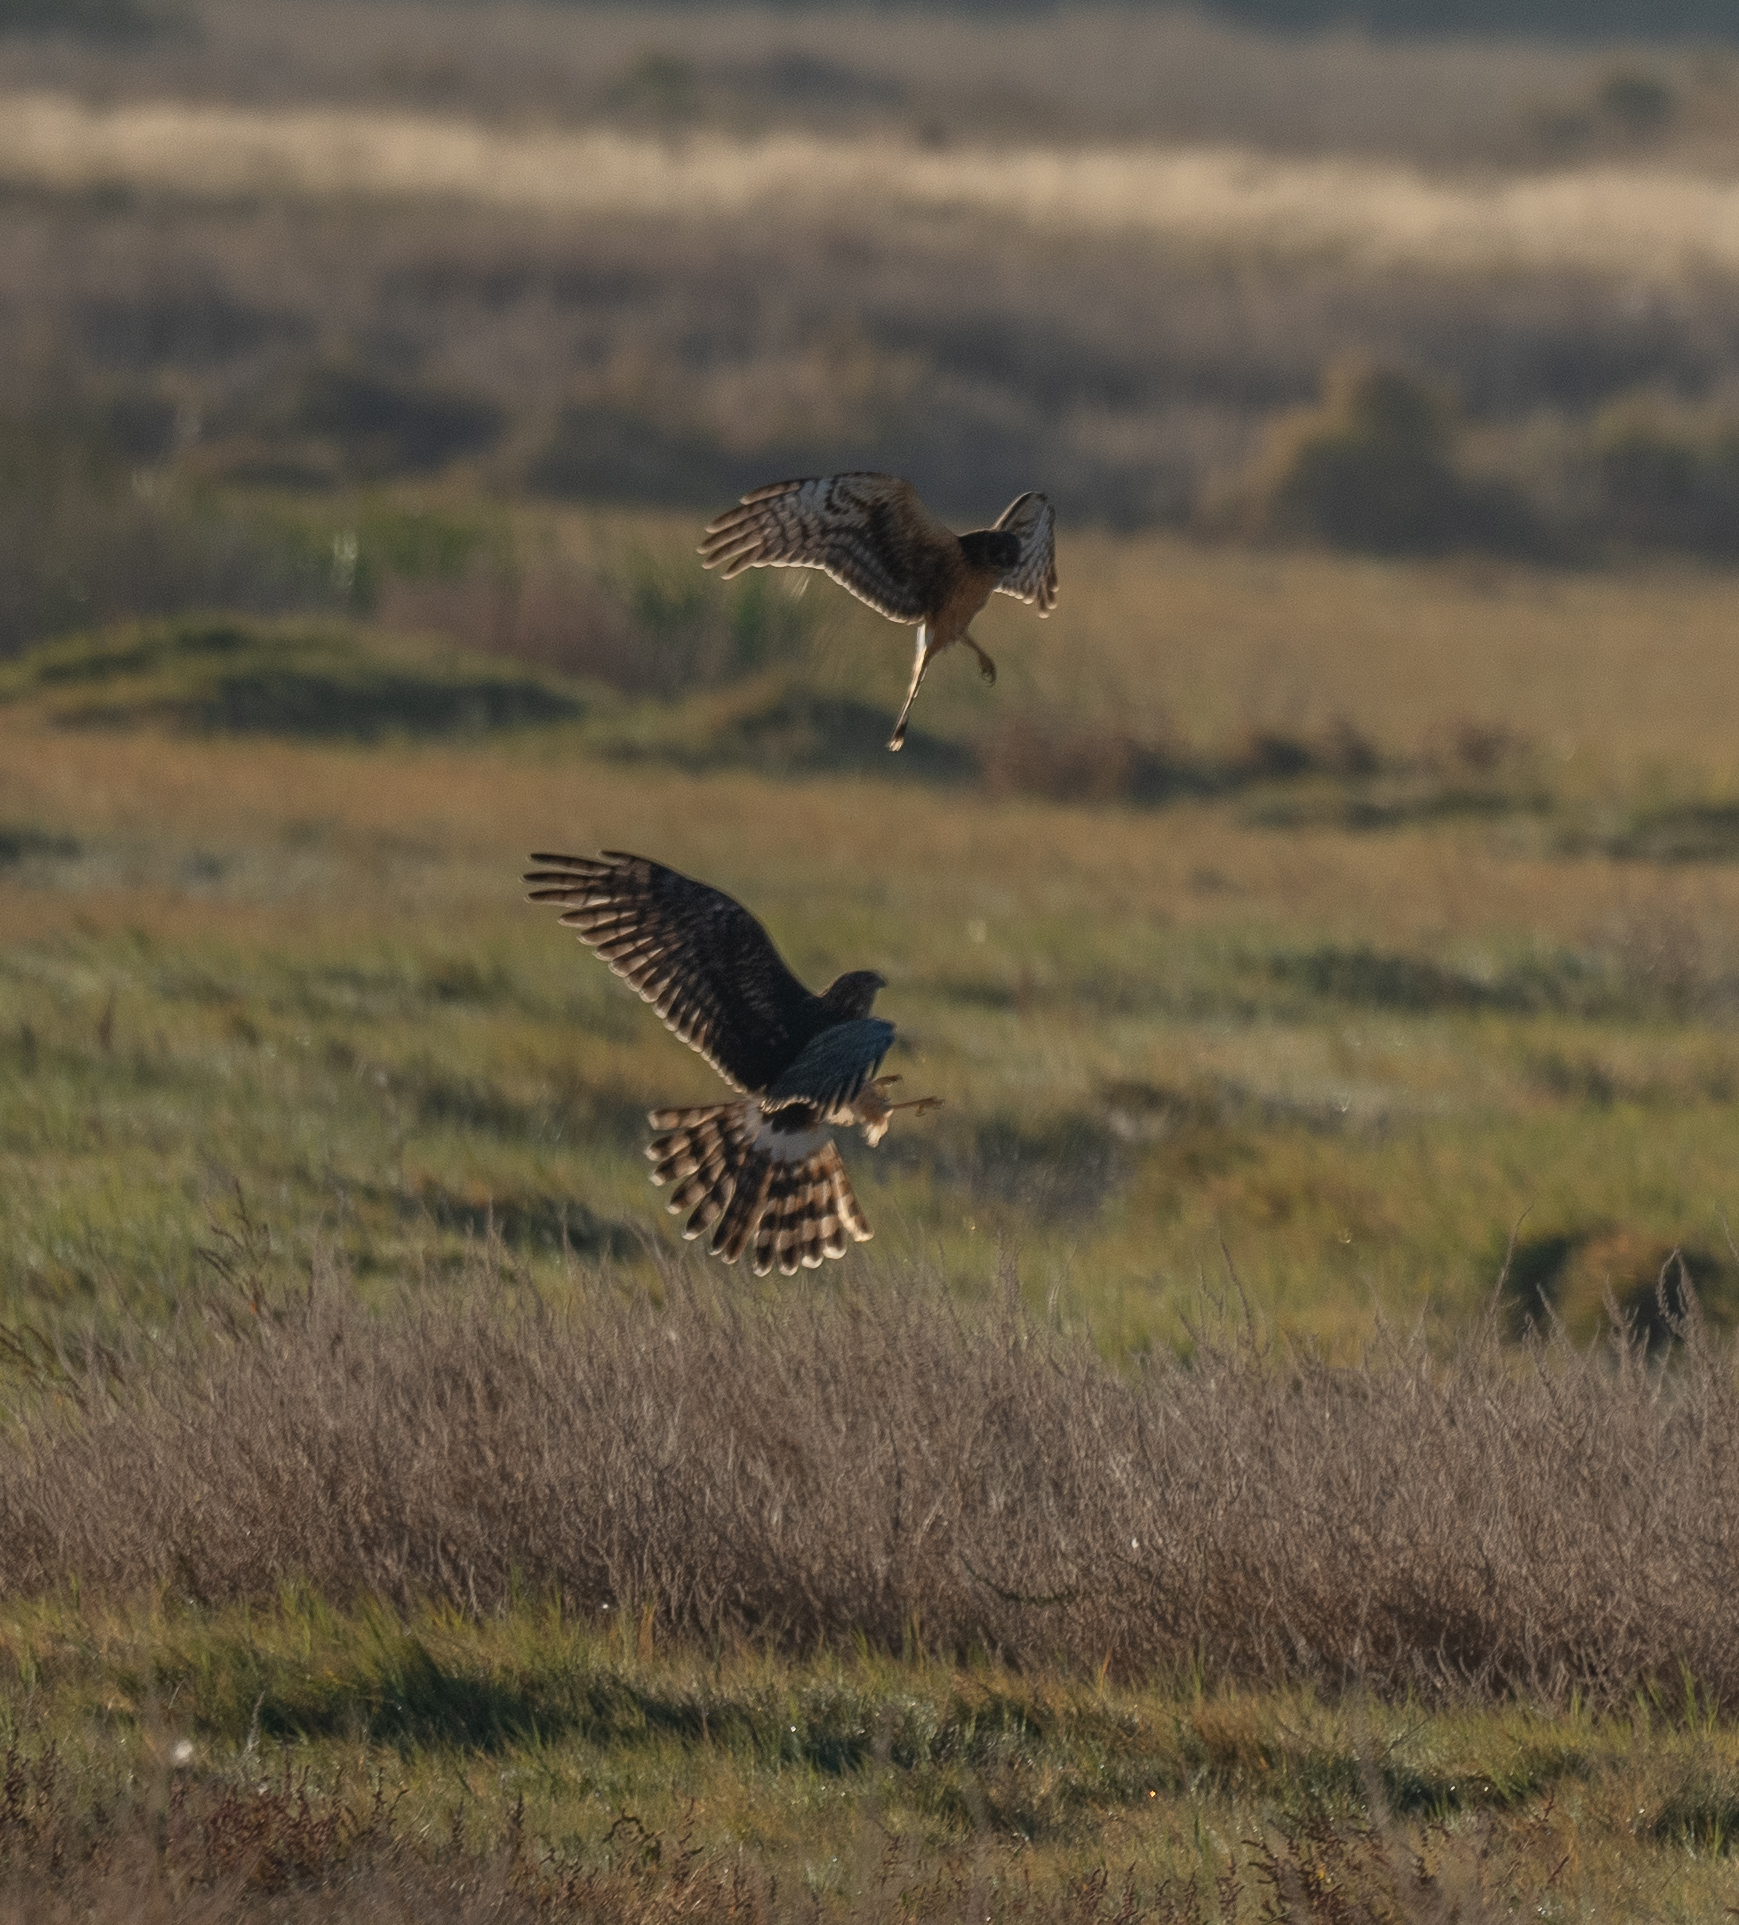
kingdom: Animalia
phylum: Chordata
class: Aves
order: Accipitriformes
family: Accipitridae
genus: Circus
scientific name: Circus cyaneus
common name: Hen harrier
